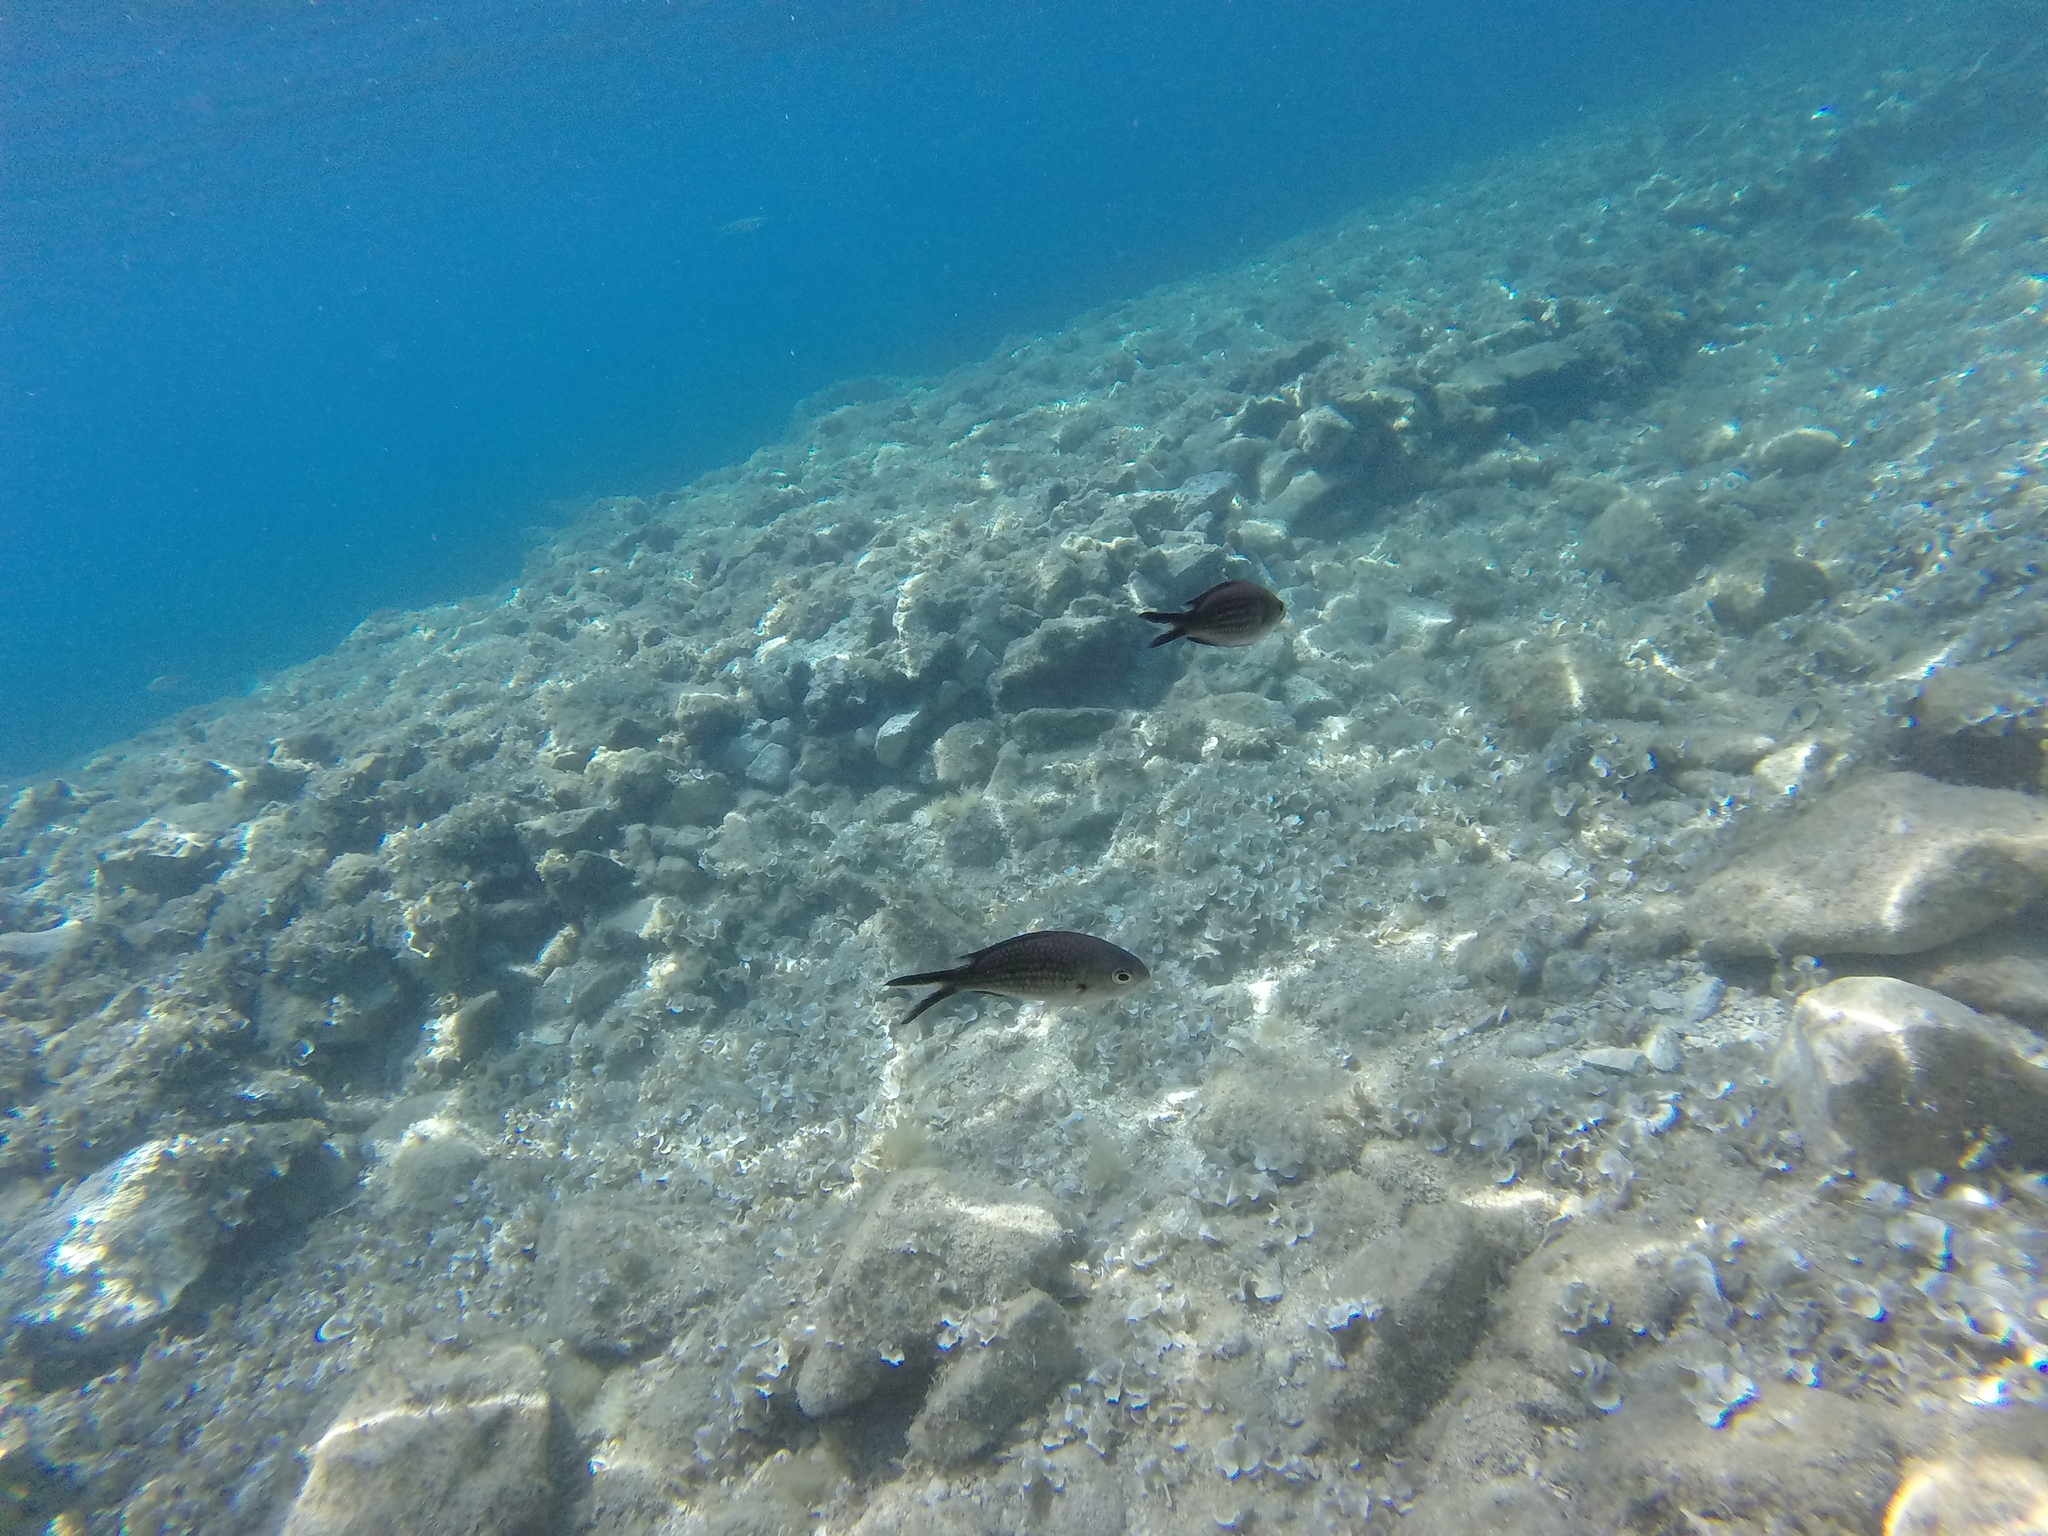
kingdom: Animalia
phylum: Chordata
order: Perciformes
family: Pomacentridae
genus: Chromis
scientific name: Chromis chromis
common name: Damselfish
